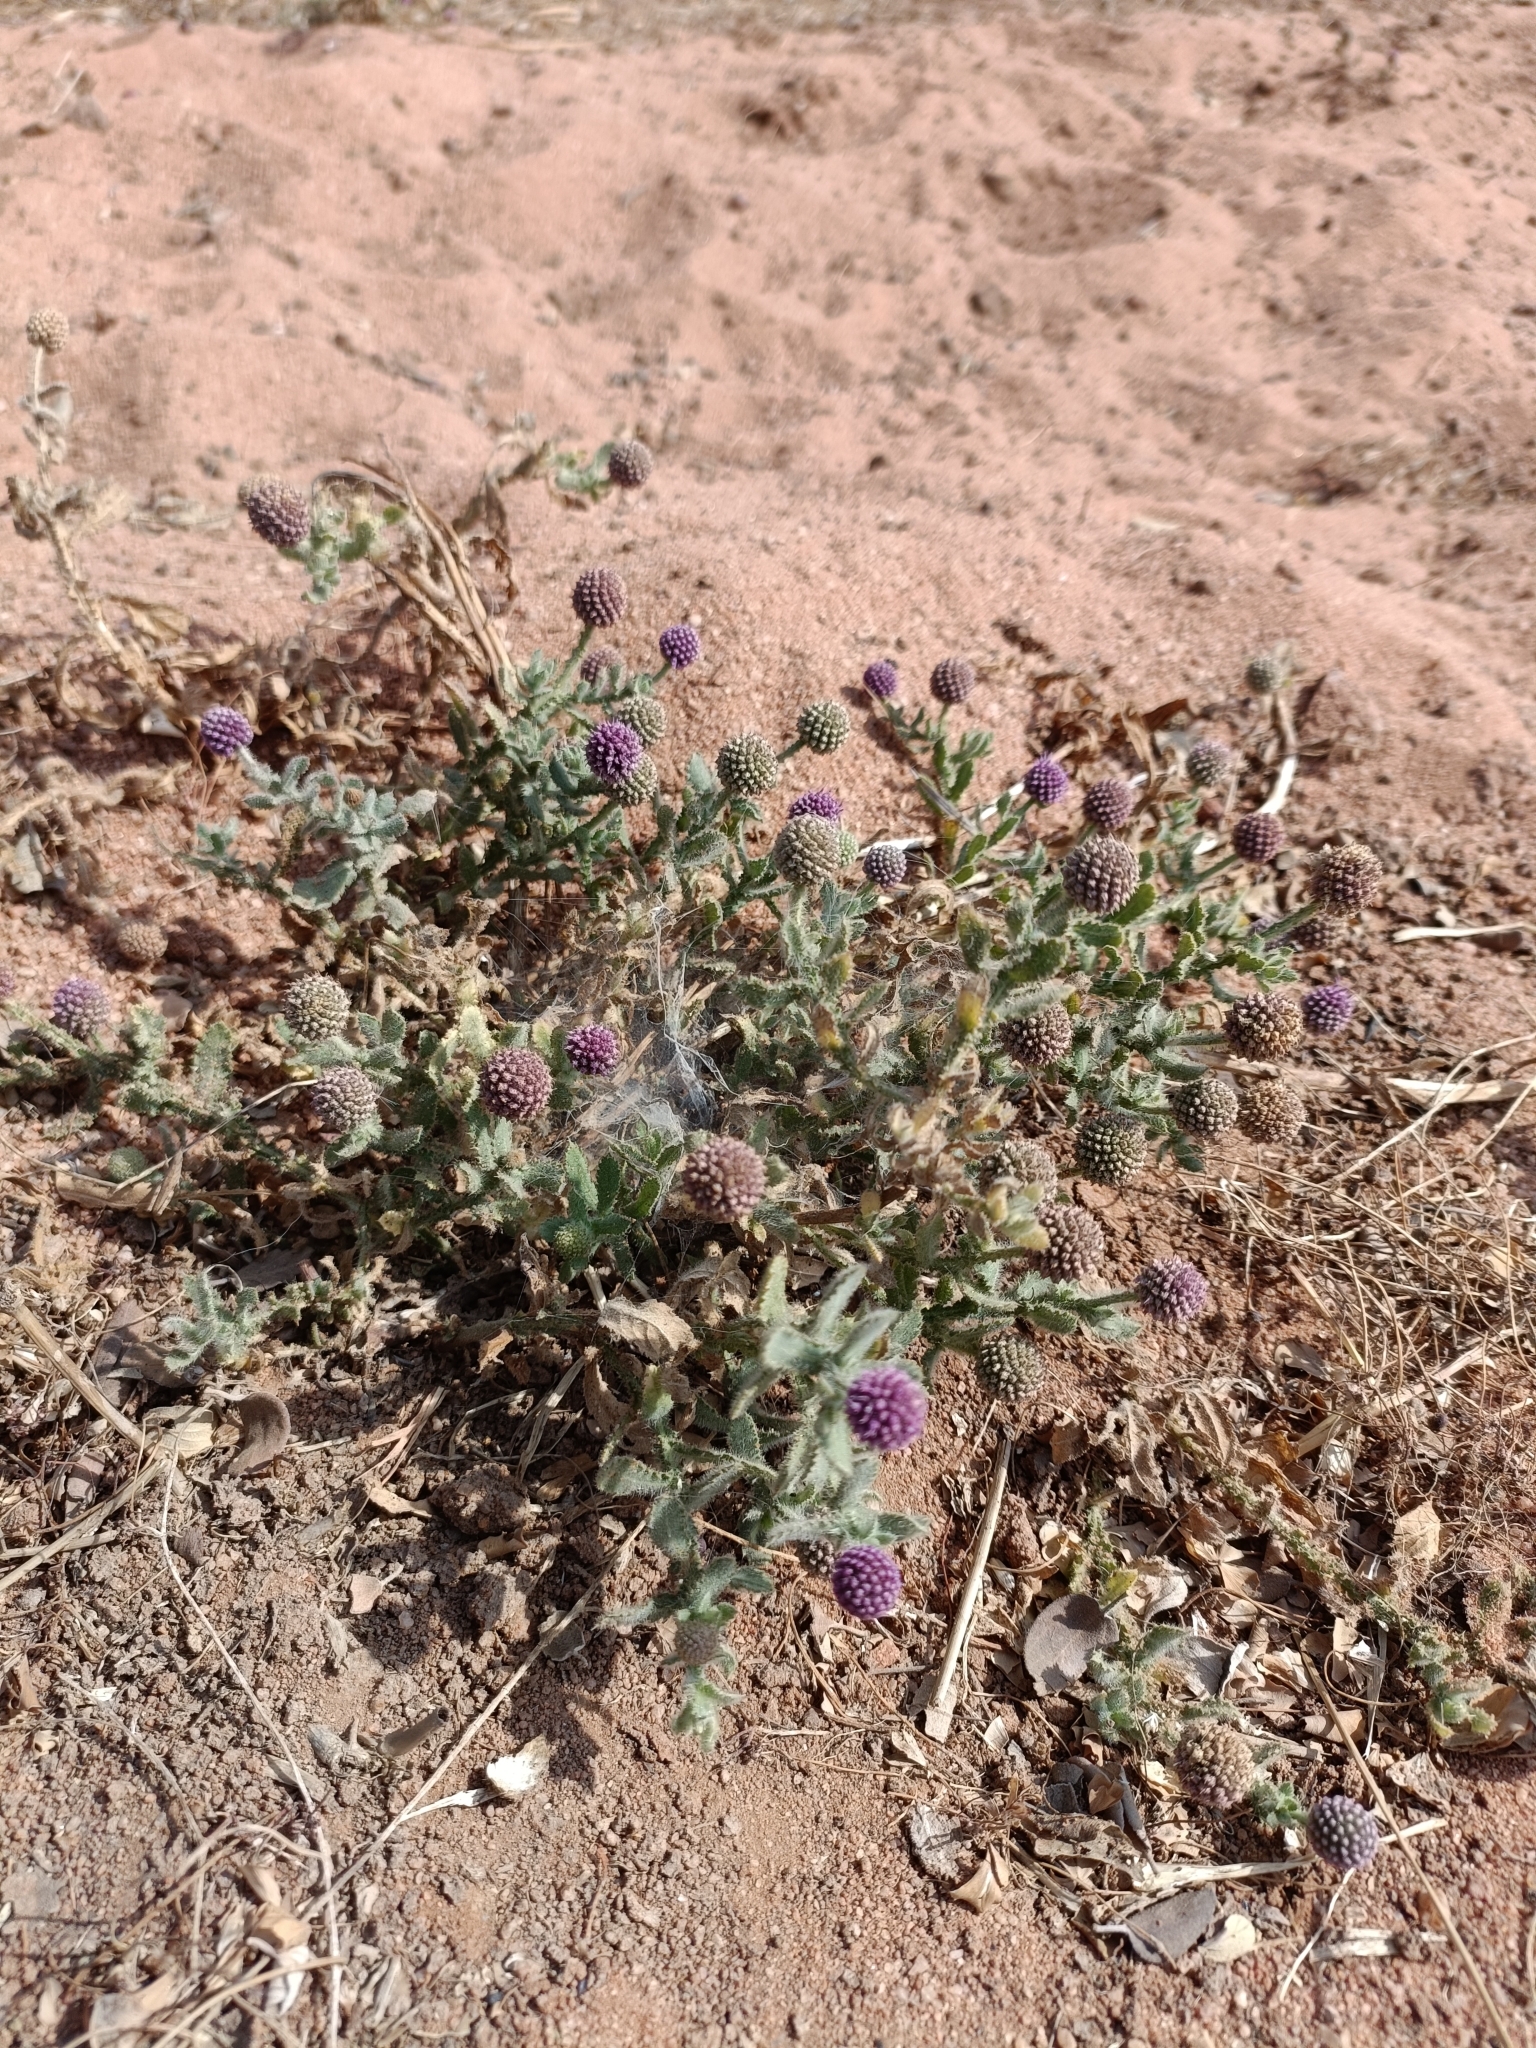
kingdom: Plantae
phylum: Tracheophyta
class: Magnoliopsida
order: Asterales
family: Asteraceae
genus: Sphaeranthus
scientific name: Sphaeranthus indicus
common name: East indian globe thistle
